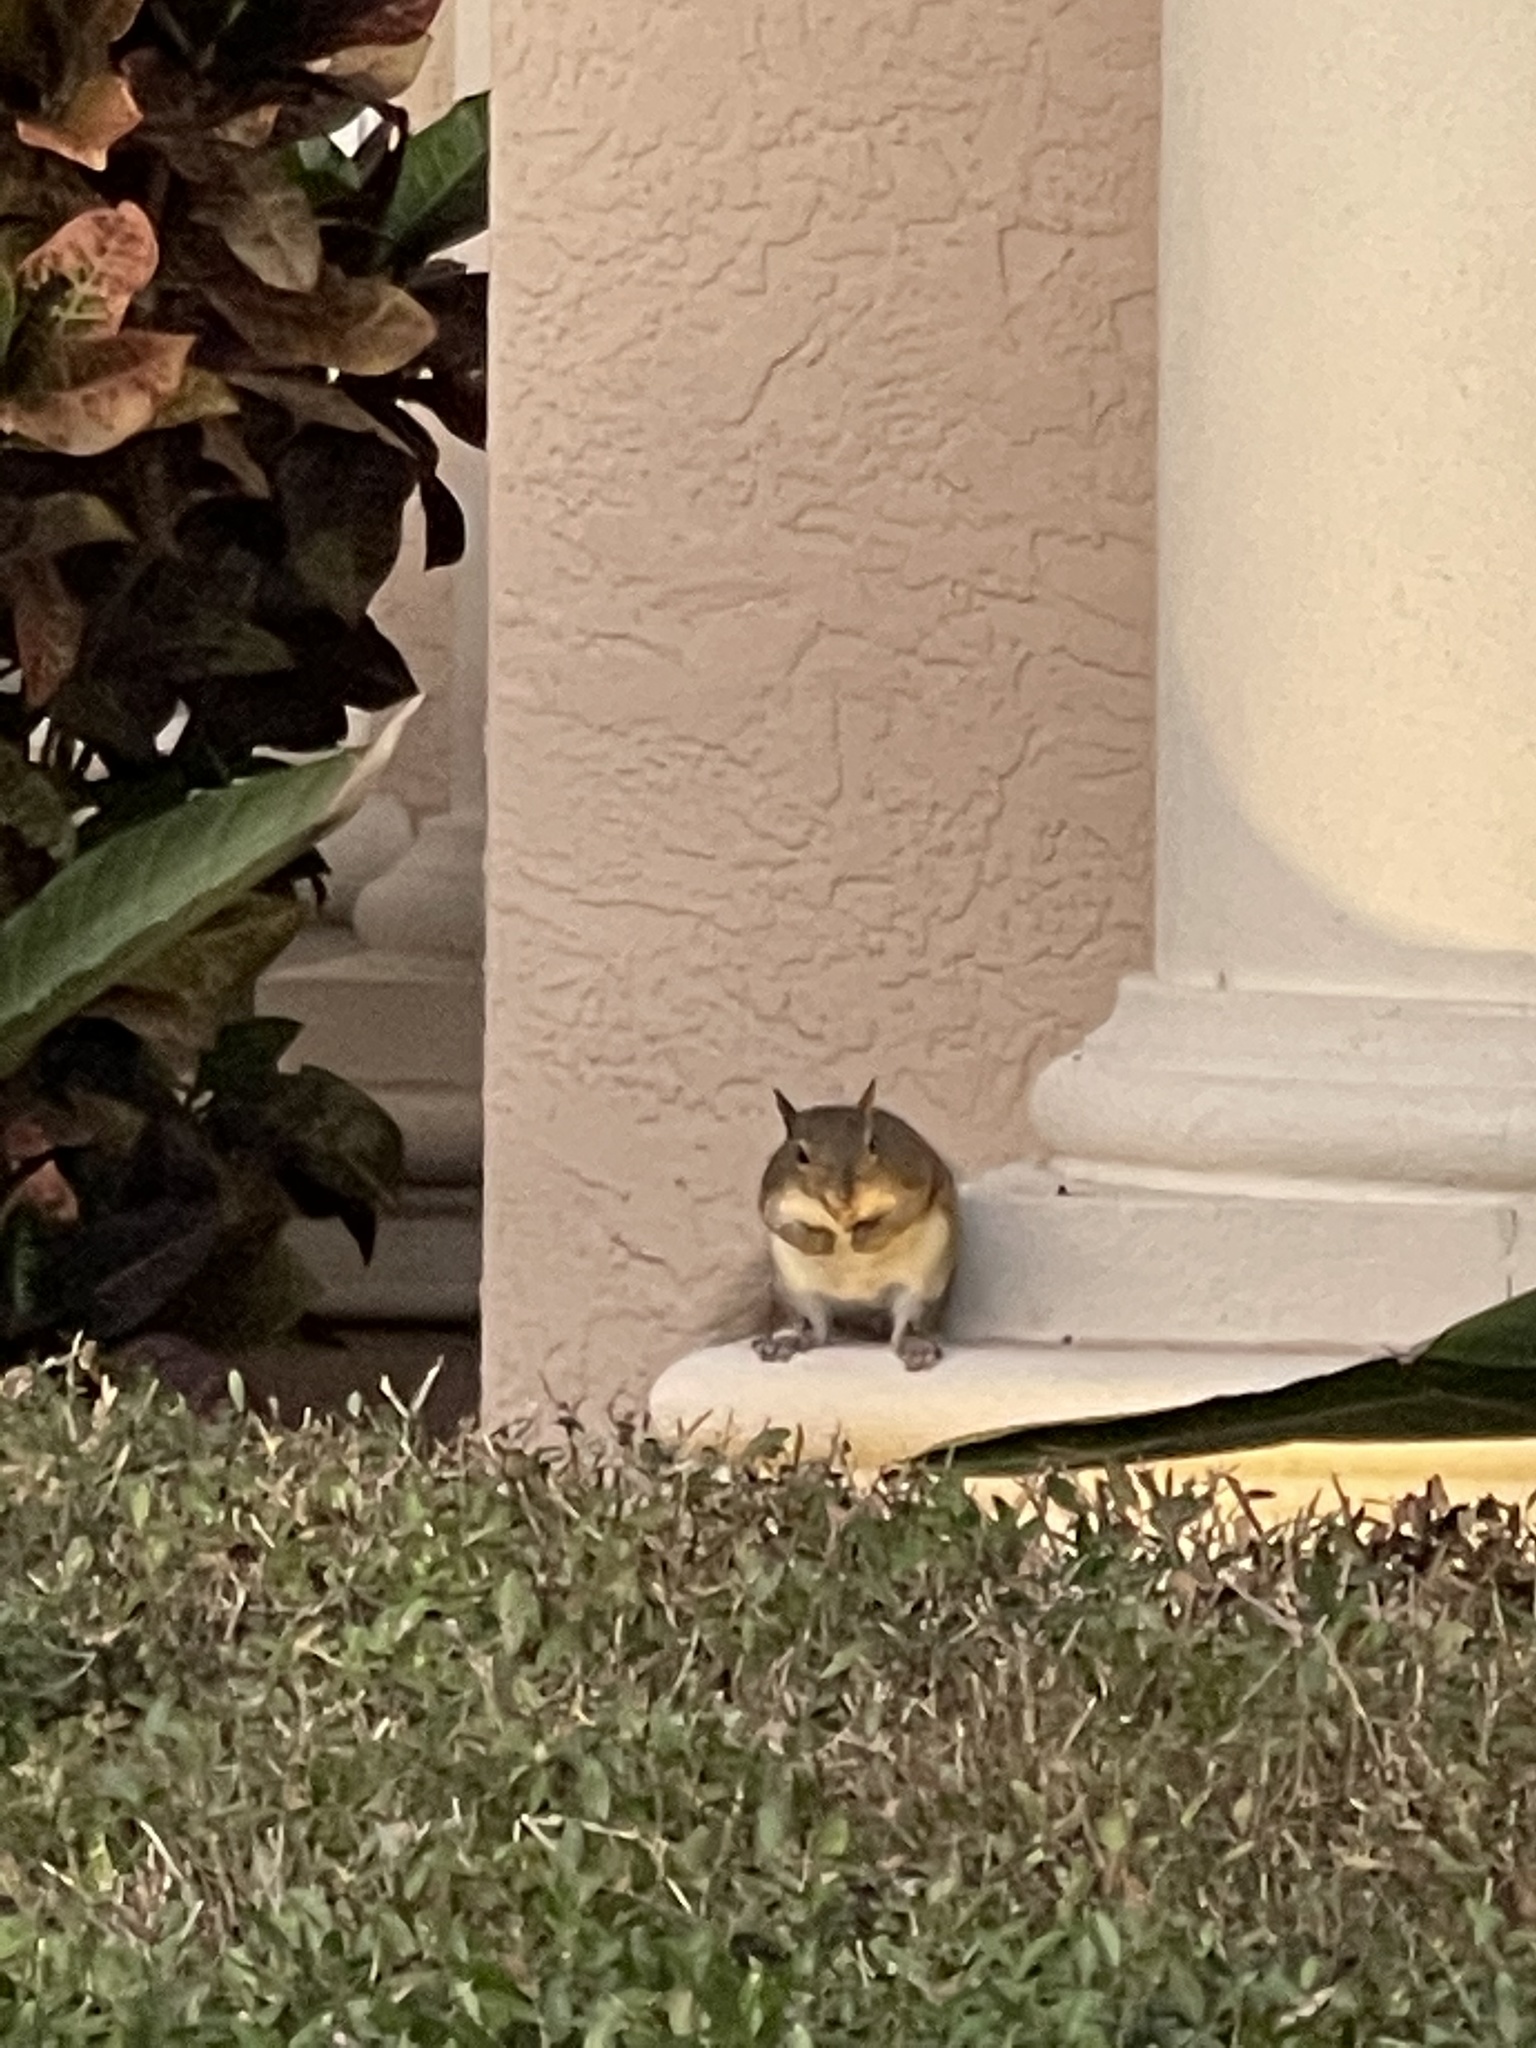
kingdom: Animalia
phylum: Chordata
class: Mammalia
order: Rodentia
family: Sciuridae
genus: Sciurus
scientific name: Sciurus carolinensis
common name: Eastern gray squirrel
